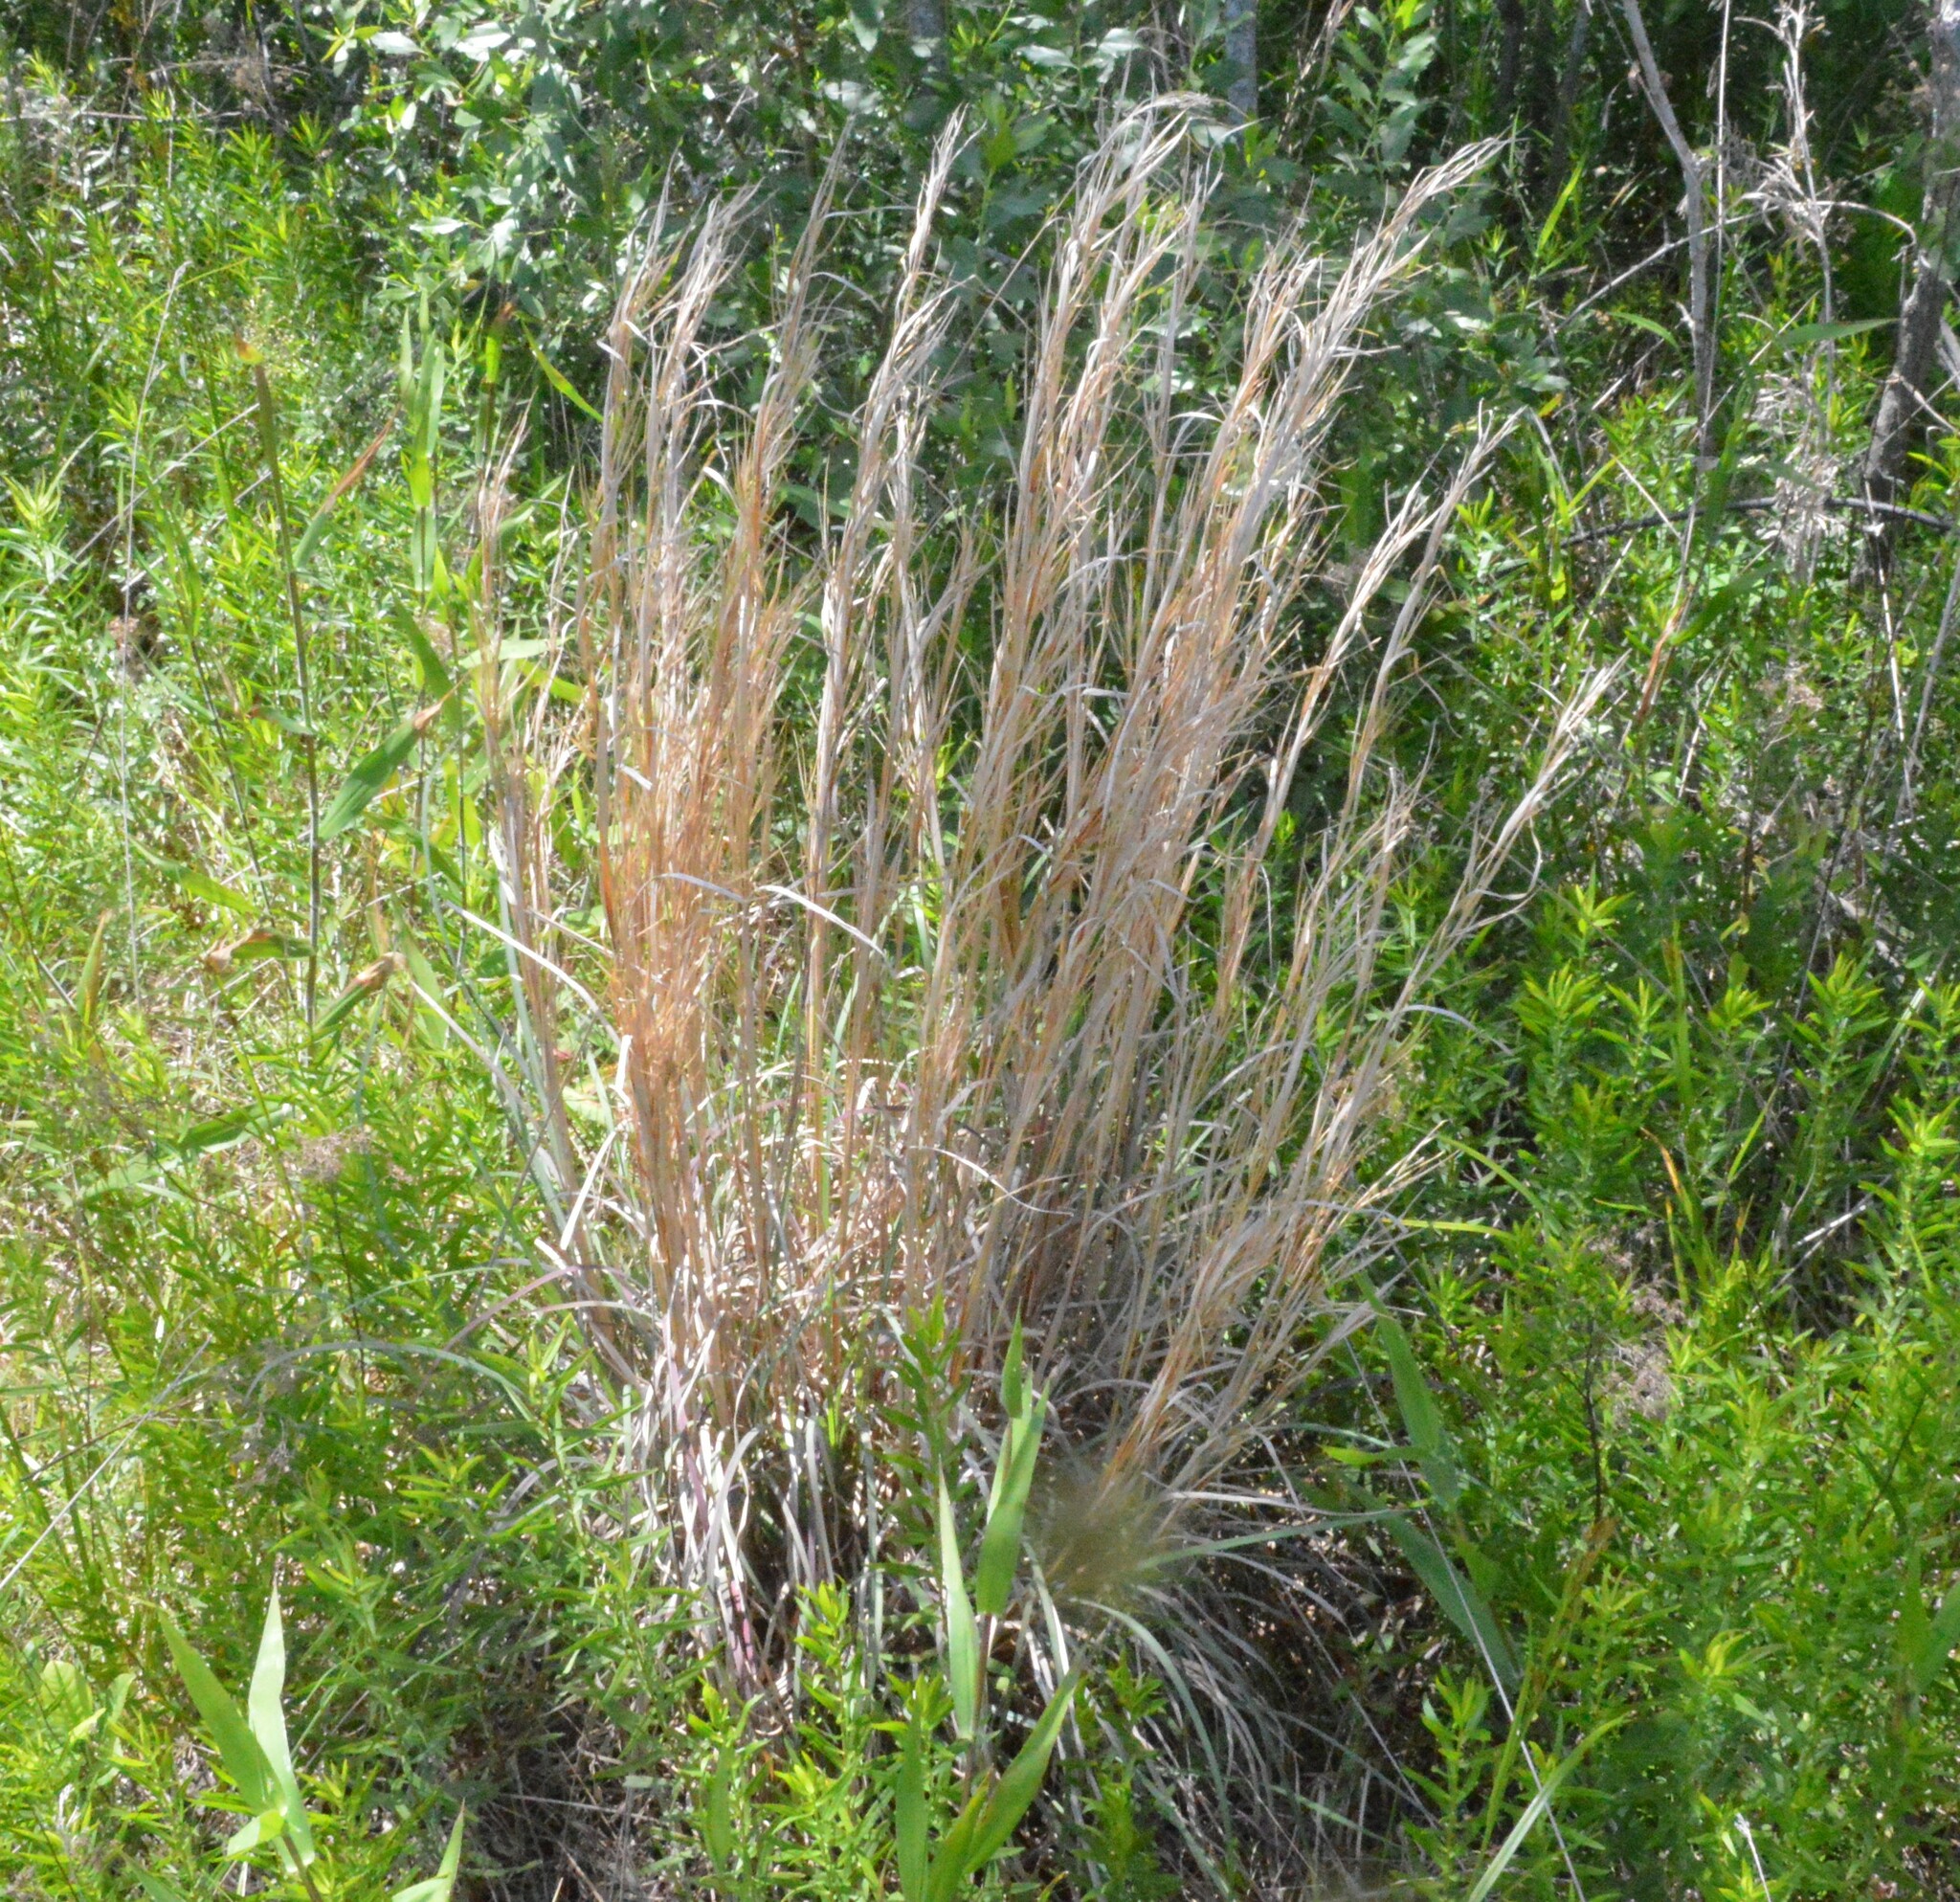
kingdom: Plantae
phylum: Tracheophyta
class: Liliopsida
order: Poales
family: Poaceae
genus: Andropogon
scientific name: Andropogon virginicus
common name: Broomsedge bluestem
